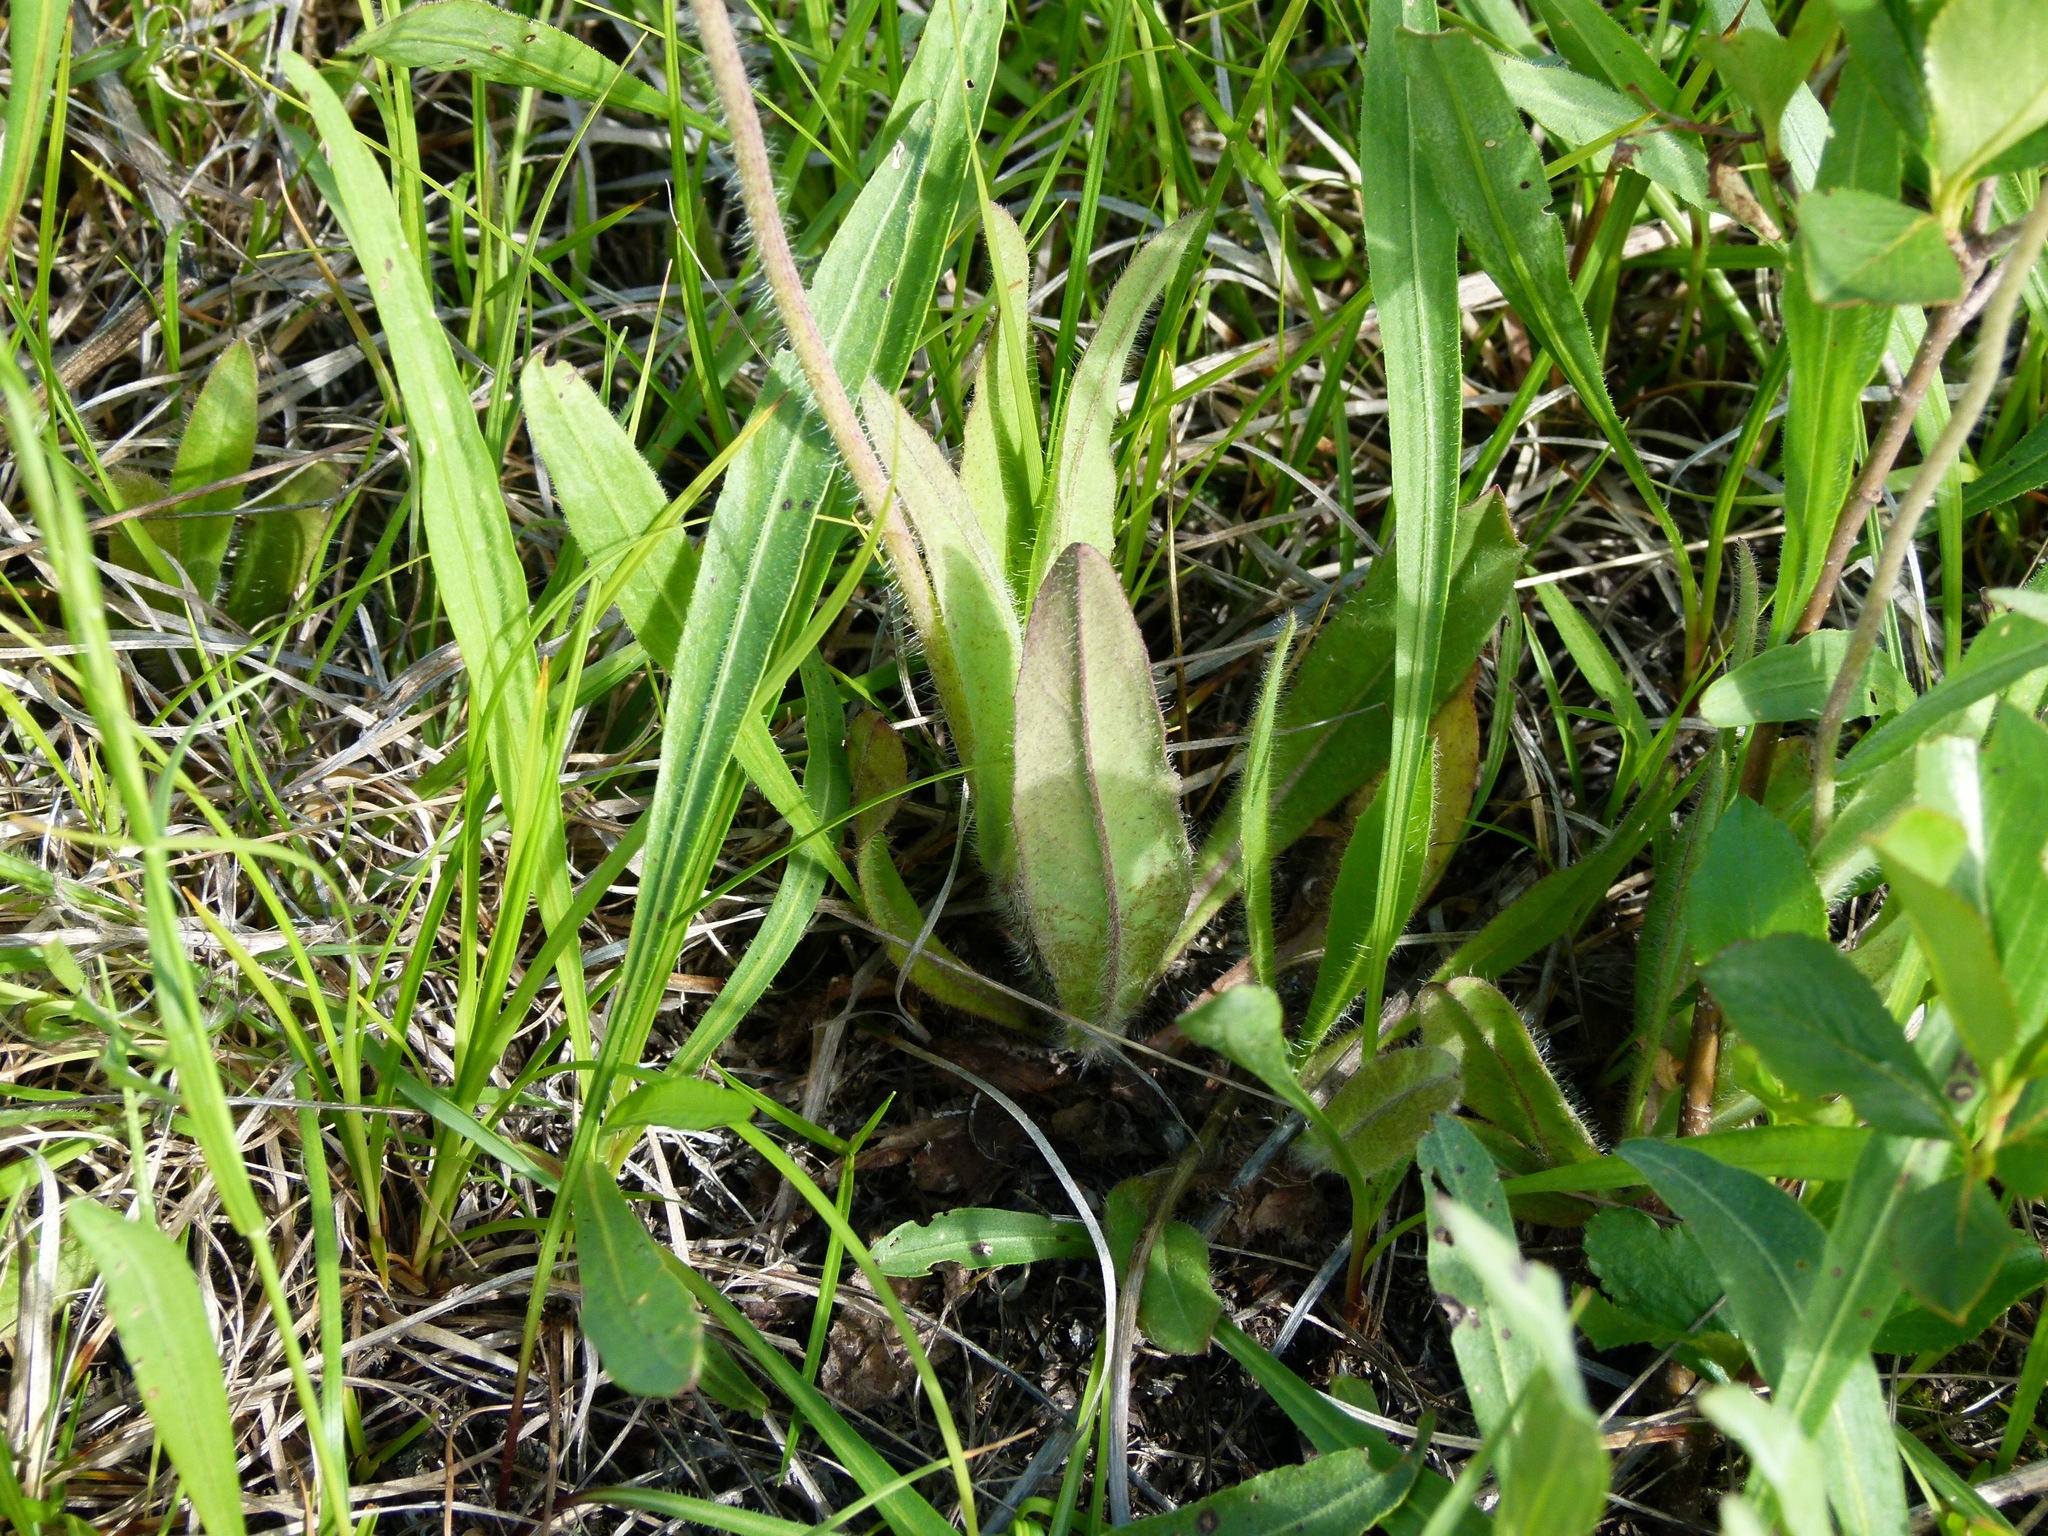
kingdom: Plantae
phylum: Tracheophyta
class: Magnoliopsida
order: Asterales
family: Asteraceae
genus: Pilosella
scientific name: Pilosella caespitosa
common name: Yellow fox-and-cubs
